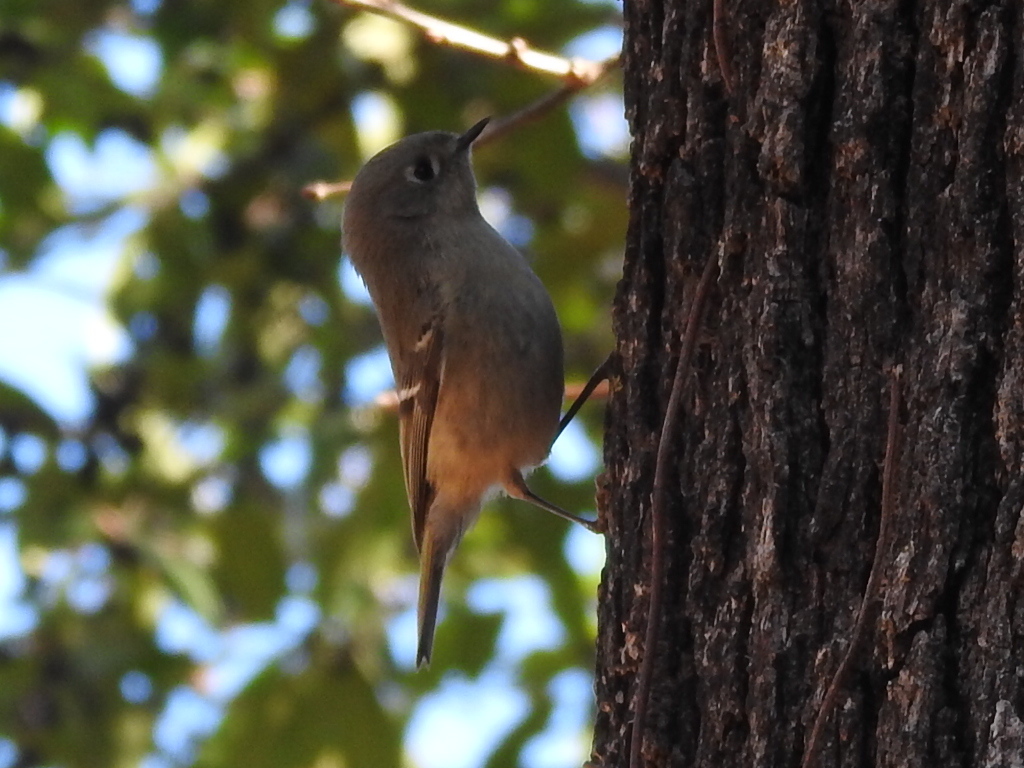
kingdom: Animalia
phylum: Chordata
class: Aves
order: Passeriformes
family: Regulidae
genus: Regulus
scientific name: Regulus calendula
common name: Ruby-crowned kinglet
